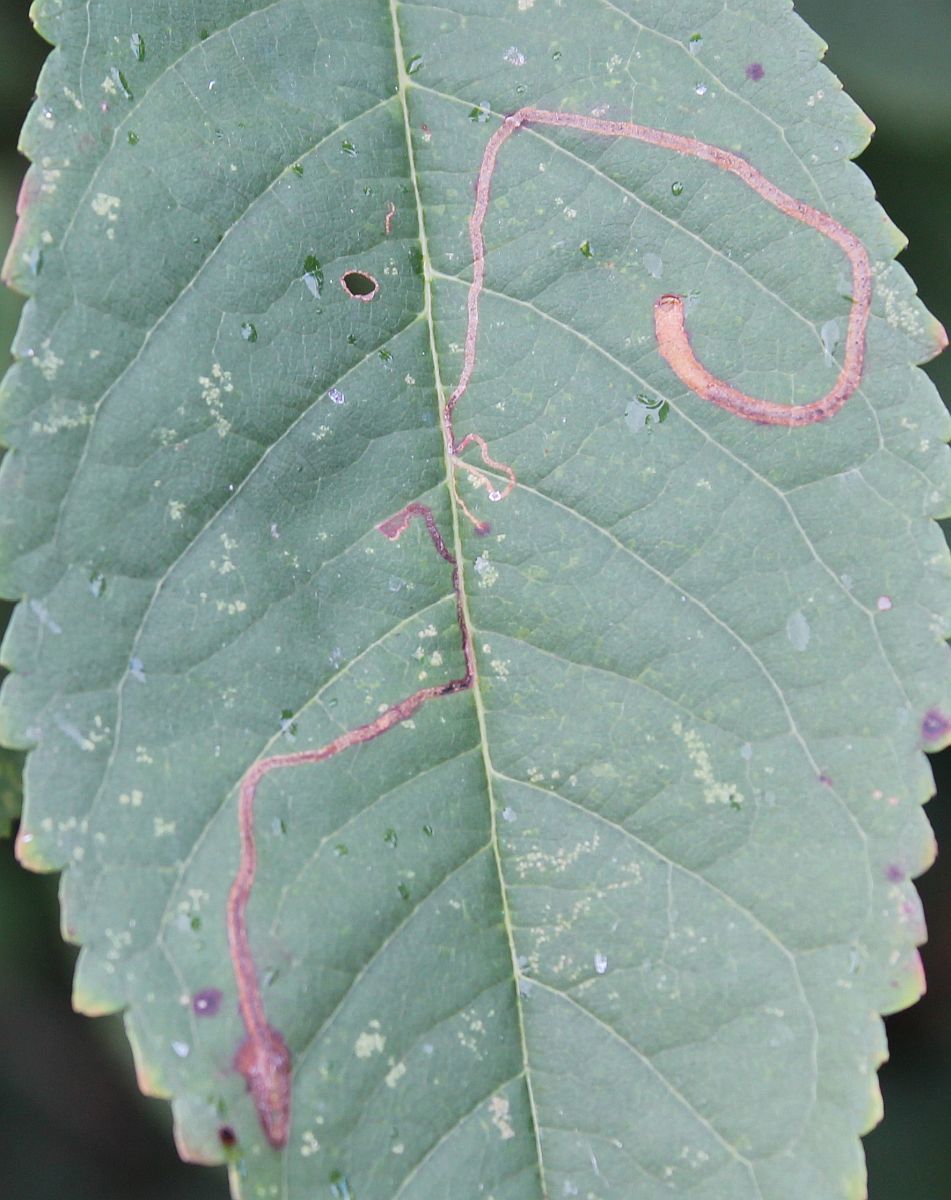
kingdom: Animalia
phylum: Arthropoda
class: Insecta
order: Lepidoptera
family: Lyonetiidae
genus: Lyonetia
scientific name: Lyonetia clerkella
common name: Apple leaf miner
